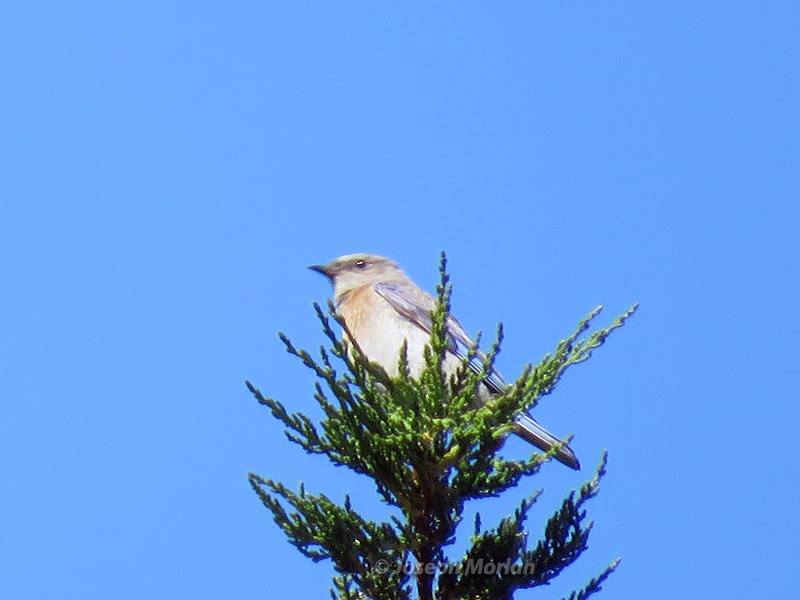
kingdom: Animalia
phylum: Chordata
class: Aves
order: Passeriformes
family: Turdidae
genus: Sialia
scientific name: Sialia mexicana
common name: Western bluebird
